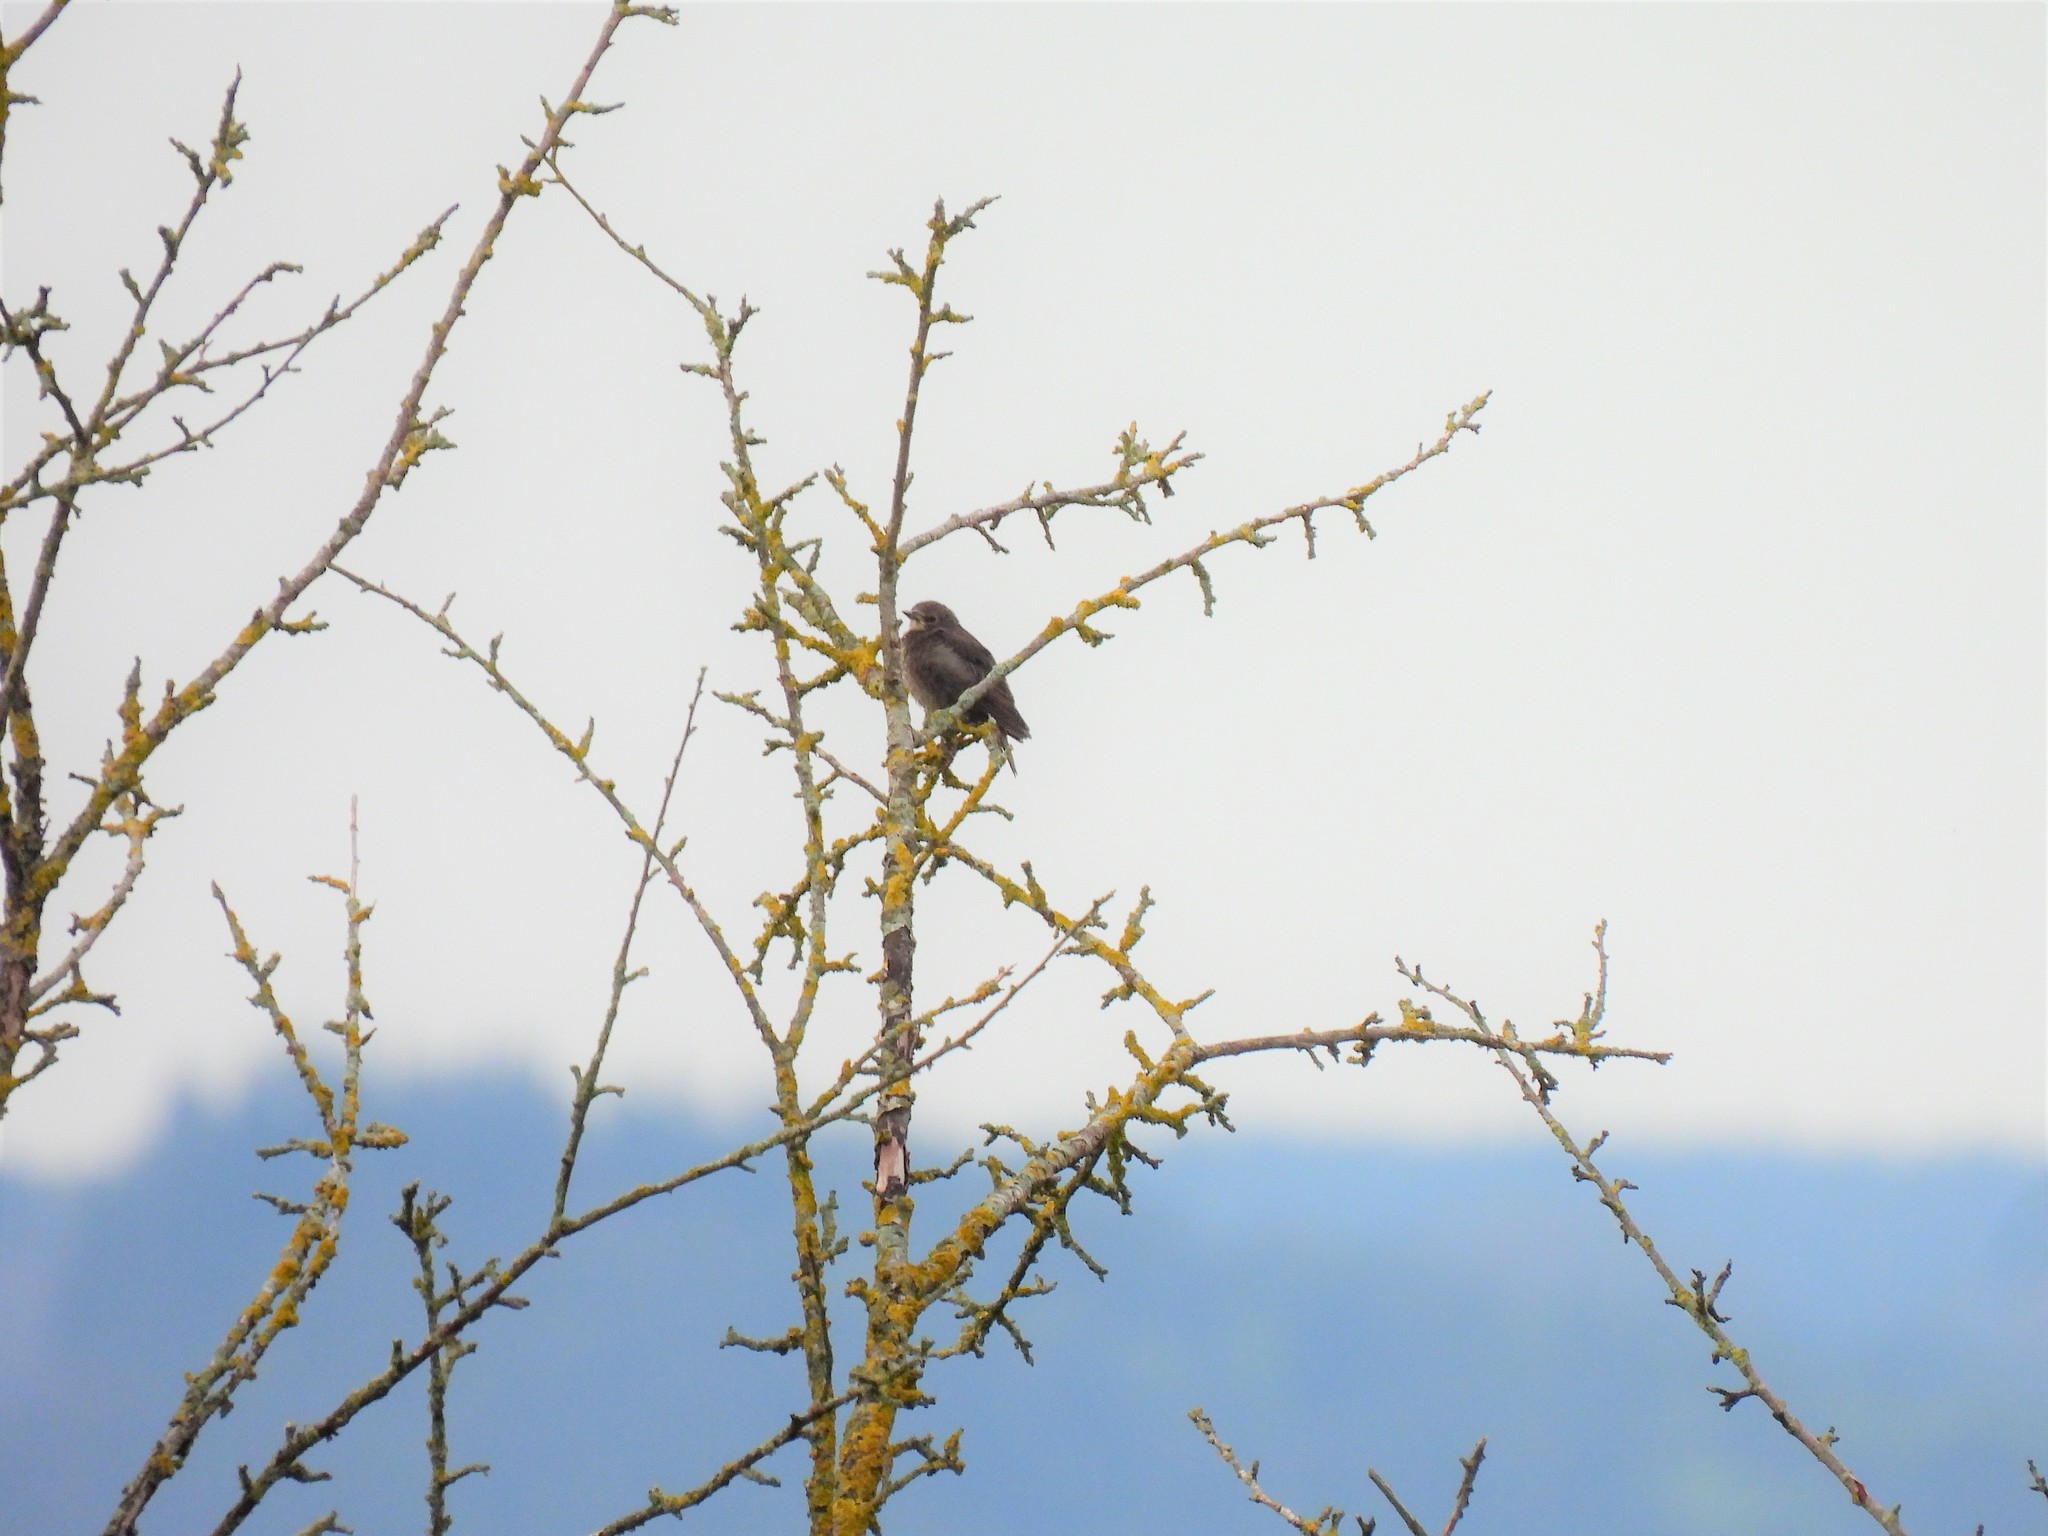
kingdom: Animalia
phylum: Chordata
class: Aves
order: Passeriformes
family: Sturnidae
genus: Sturnus
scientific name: Sturnus vulgaris
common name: Common starling
